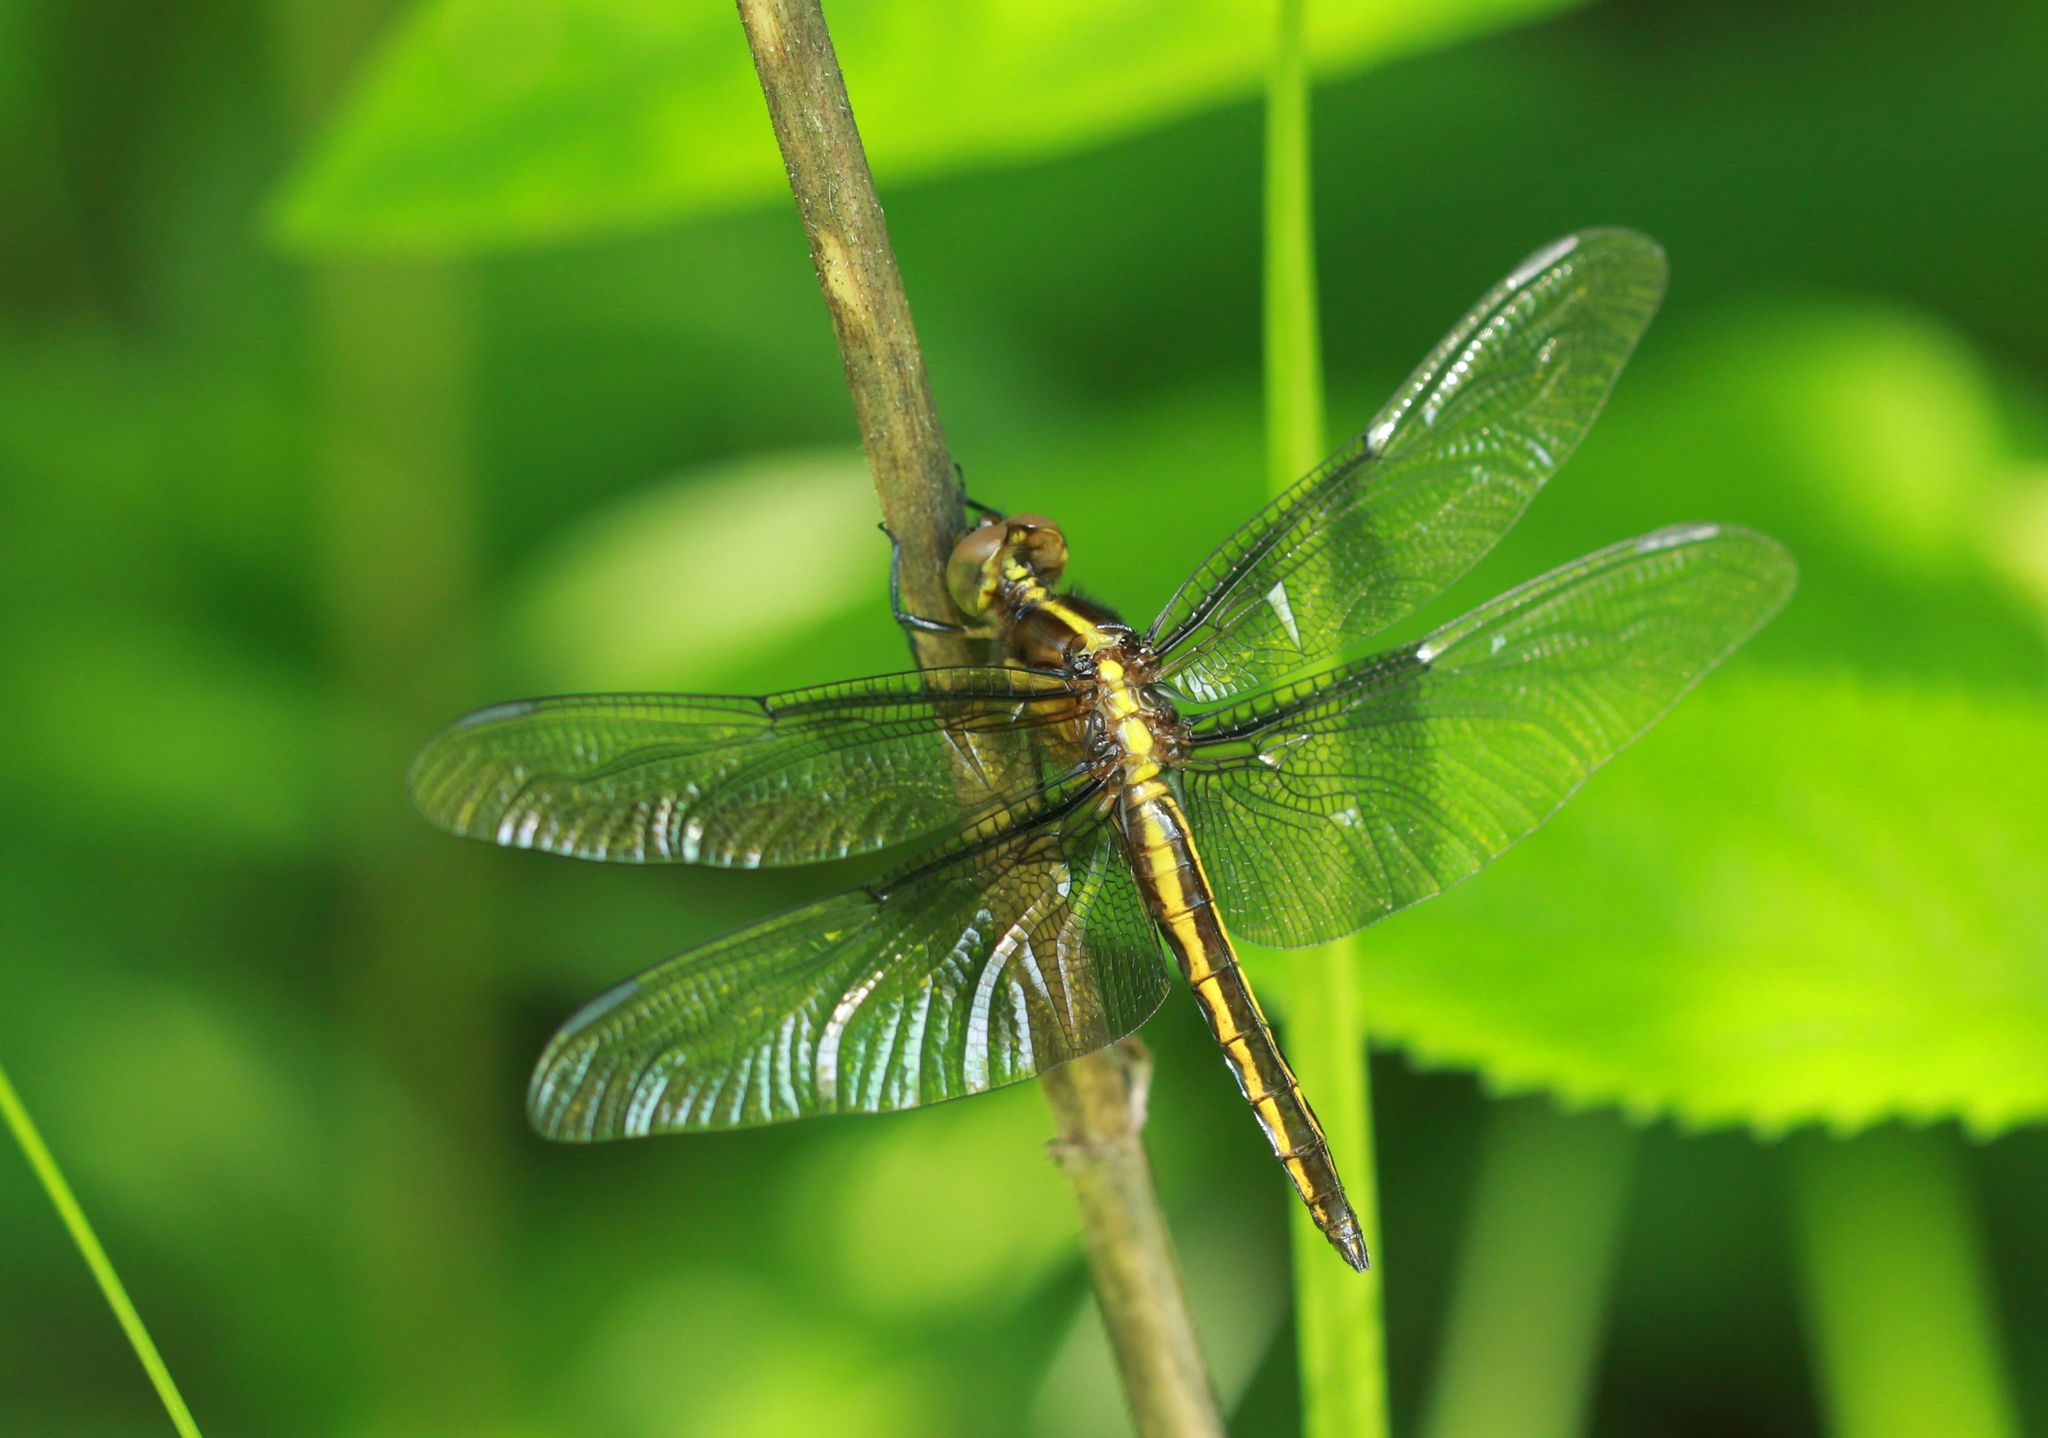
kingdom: Animalia
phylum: Arthropoda
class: Insecta
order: Odonata
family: Libellulidae
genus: Libellula
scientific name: Libellula luctuosa
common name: Widow skimmer
